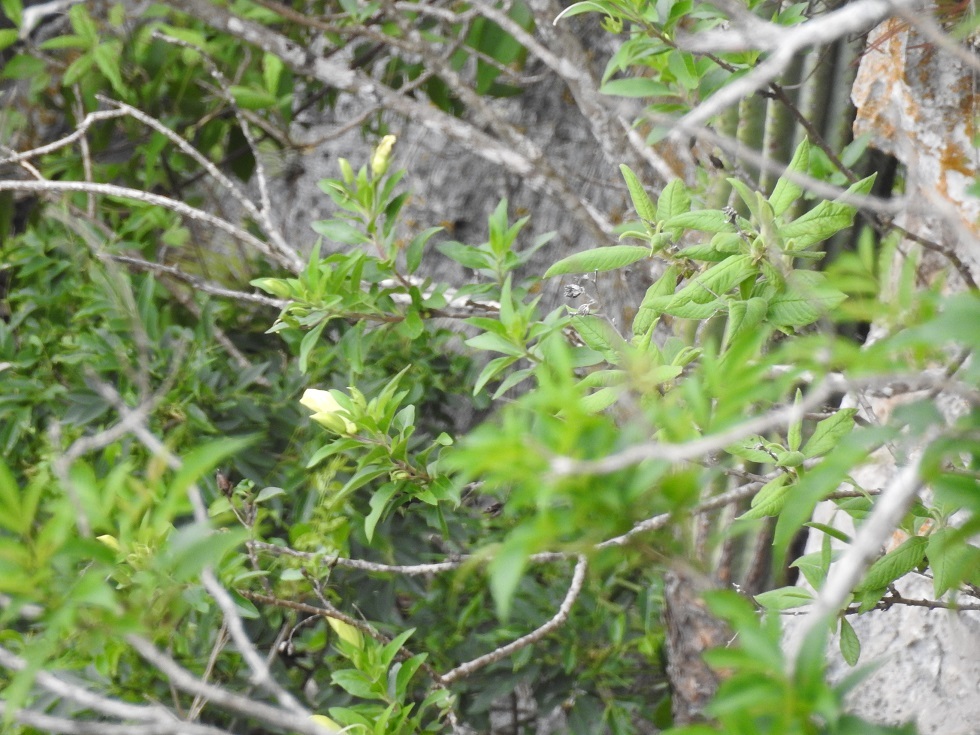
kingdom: Plantae
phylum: Tracheophyta
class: Magnoliopsida
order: Lamiales
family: Scrophulariaceae
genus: Eremogeton
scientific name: Eremogeton grandiflorus
